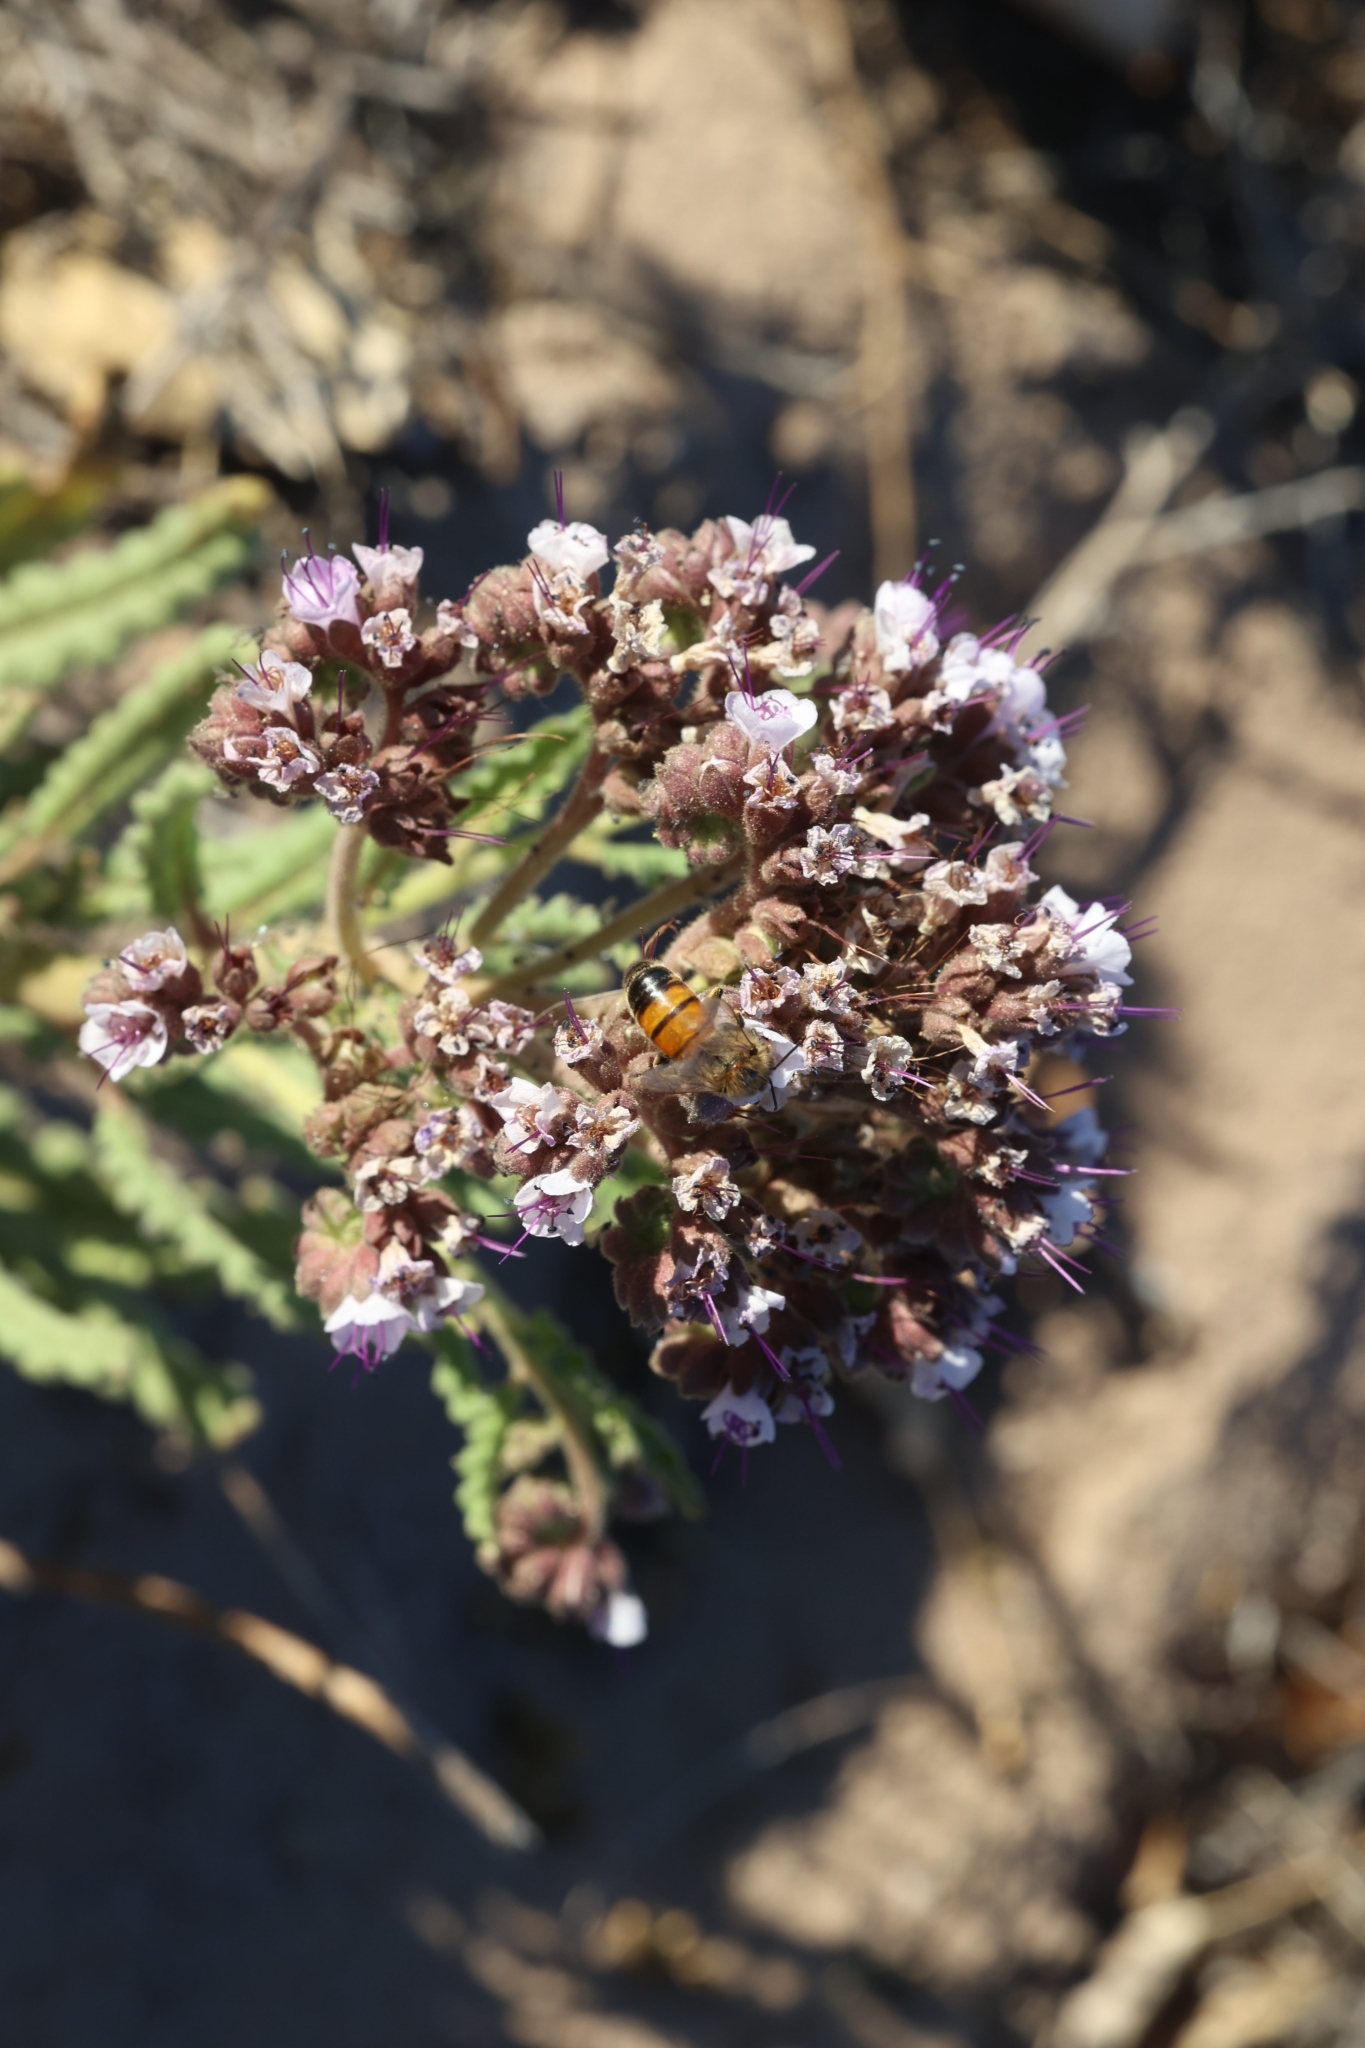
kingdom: Plantae
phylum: Tracheophyta
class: Magnoliopsida
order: Boraginales
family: Hydrophyllaceae
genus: Phacelia
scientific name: Phacelia integrifolia
